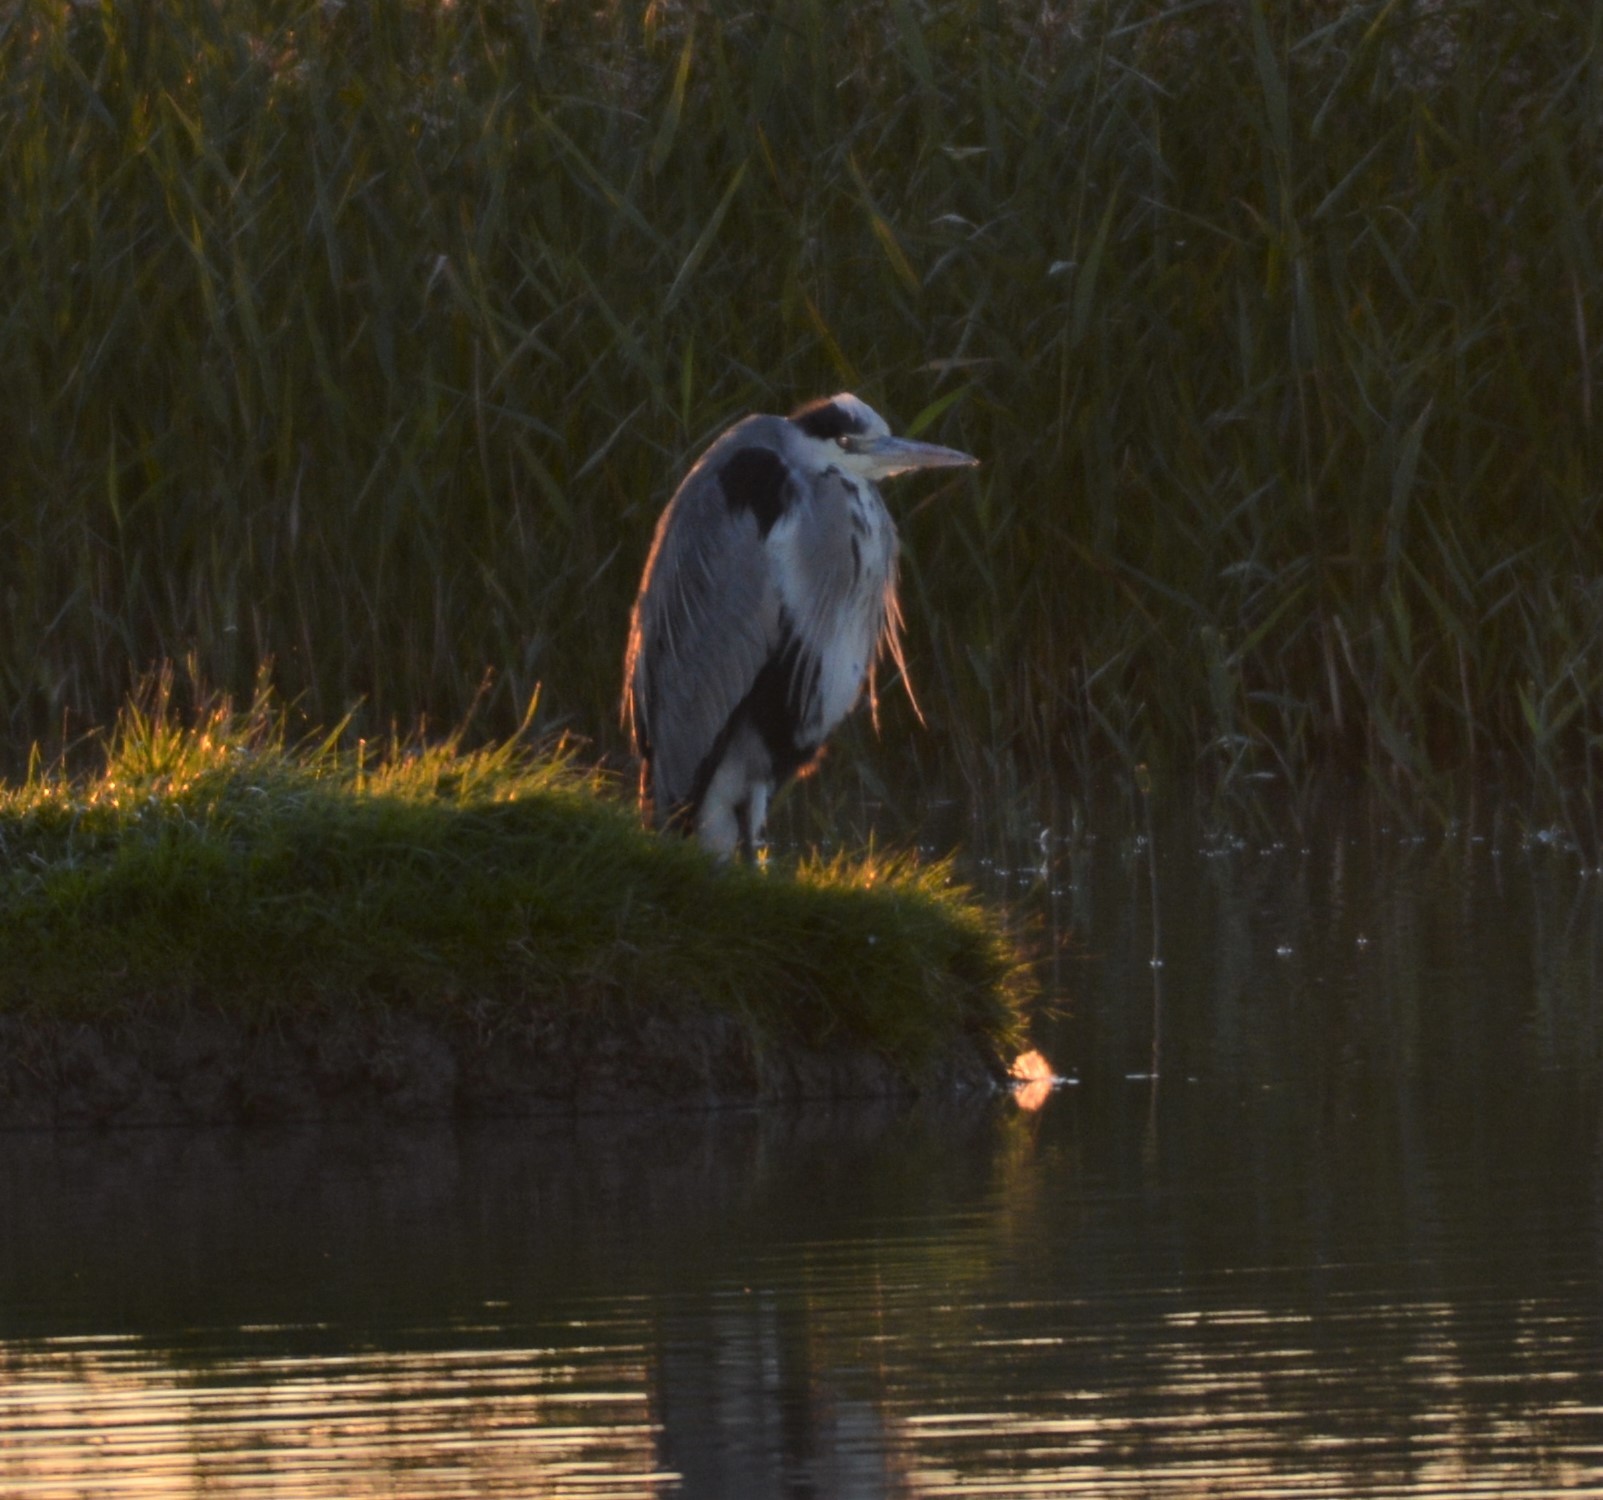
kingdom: Animalia
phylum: Chordata
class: Aves
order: Pelecaniformes
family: Ardeidae
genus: Ardea
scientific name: Ardea cinerea
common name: Grey heron
